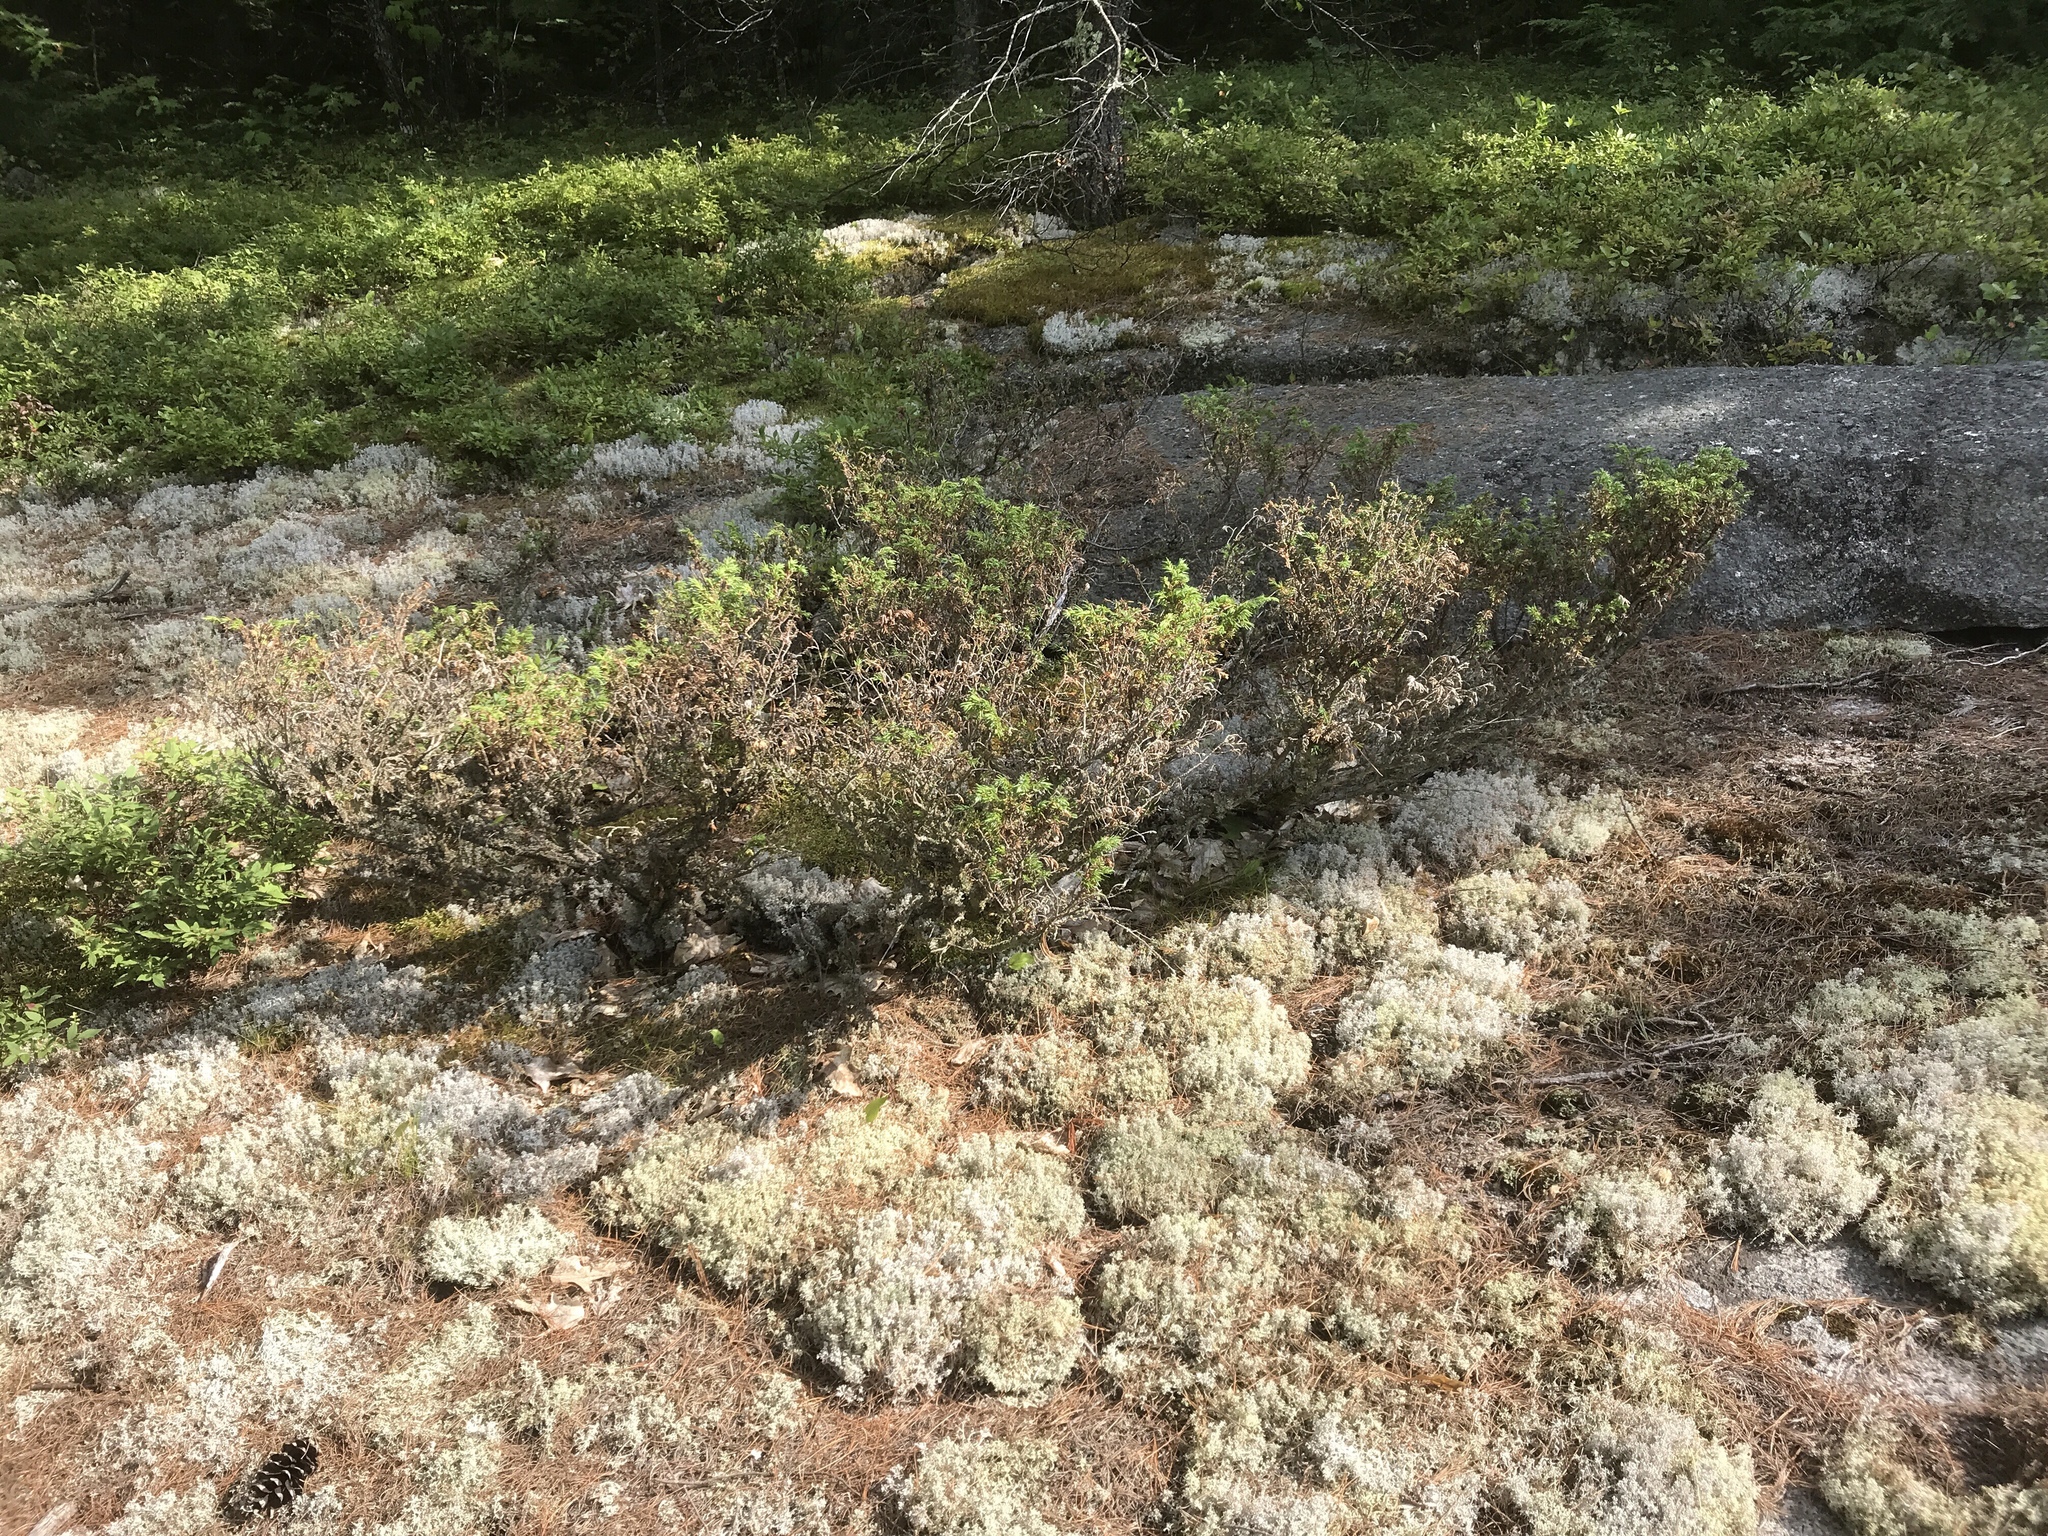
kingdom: Plantae
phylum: Tracheophyta
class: Pinopsida
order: Pinales
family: Cupressaceae
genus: Juniperus
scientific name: Juniperus communis
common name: Common juniper
